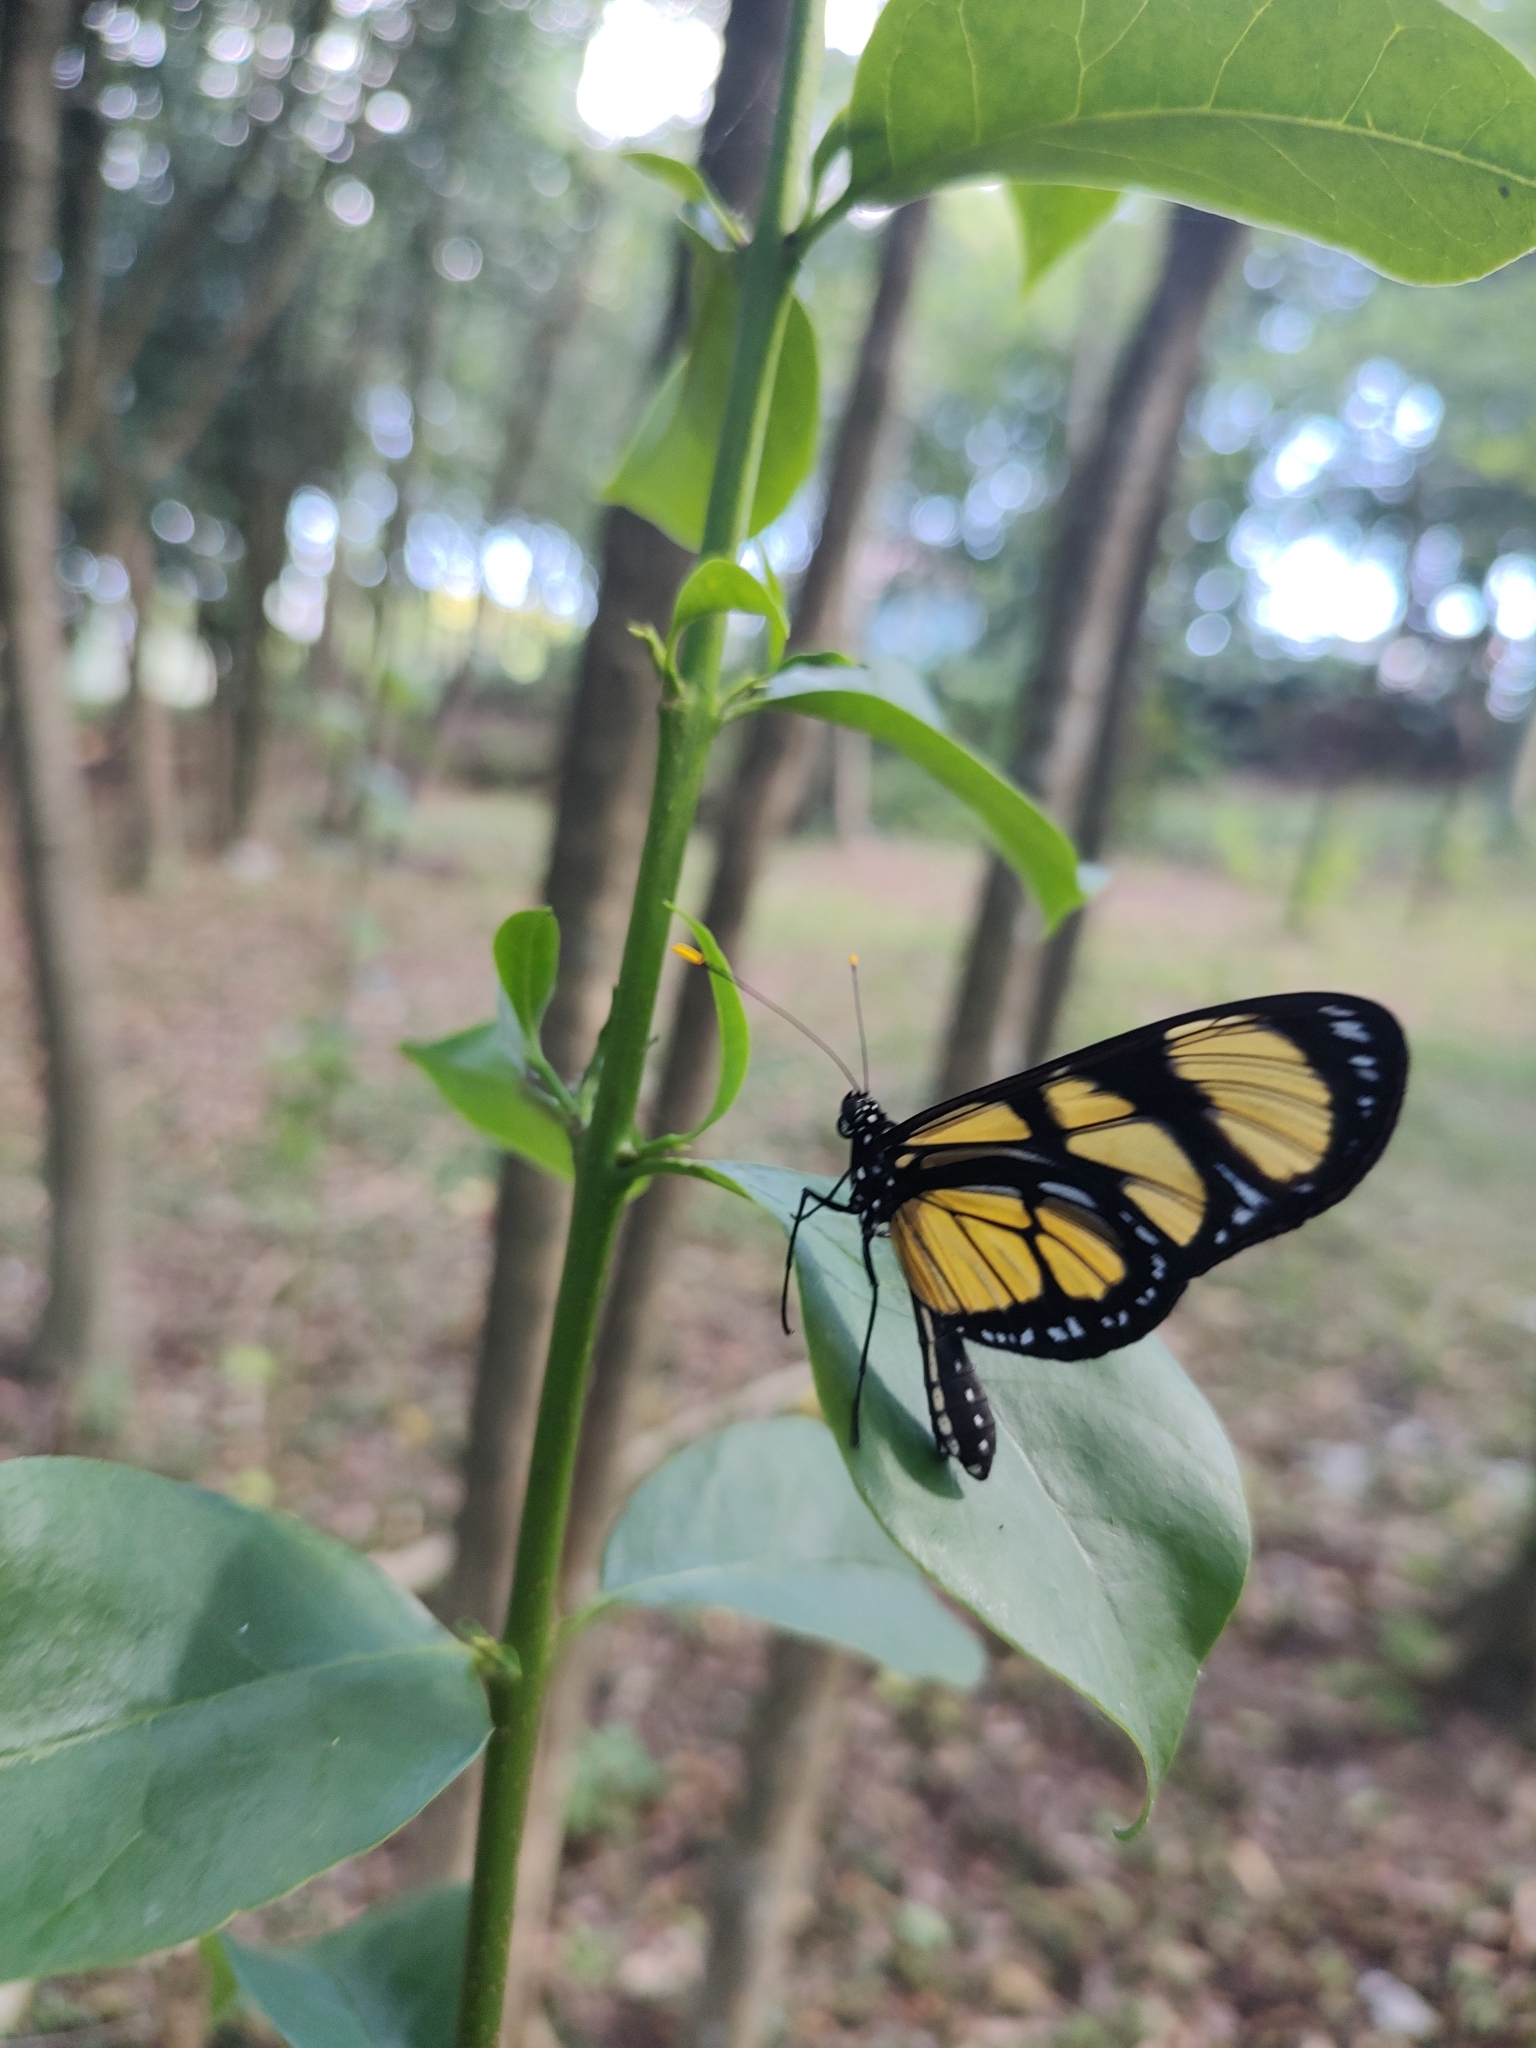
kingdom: Animalia
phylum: Arthropoda
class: Insecta
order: Lepidoptera
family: Nymphalidae
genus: Methona
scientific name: Methona themisto
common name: Themisto amberwing
